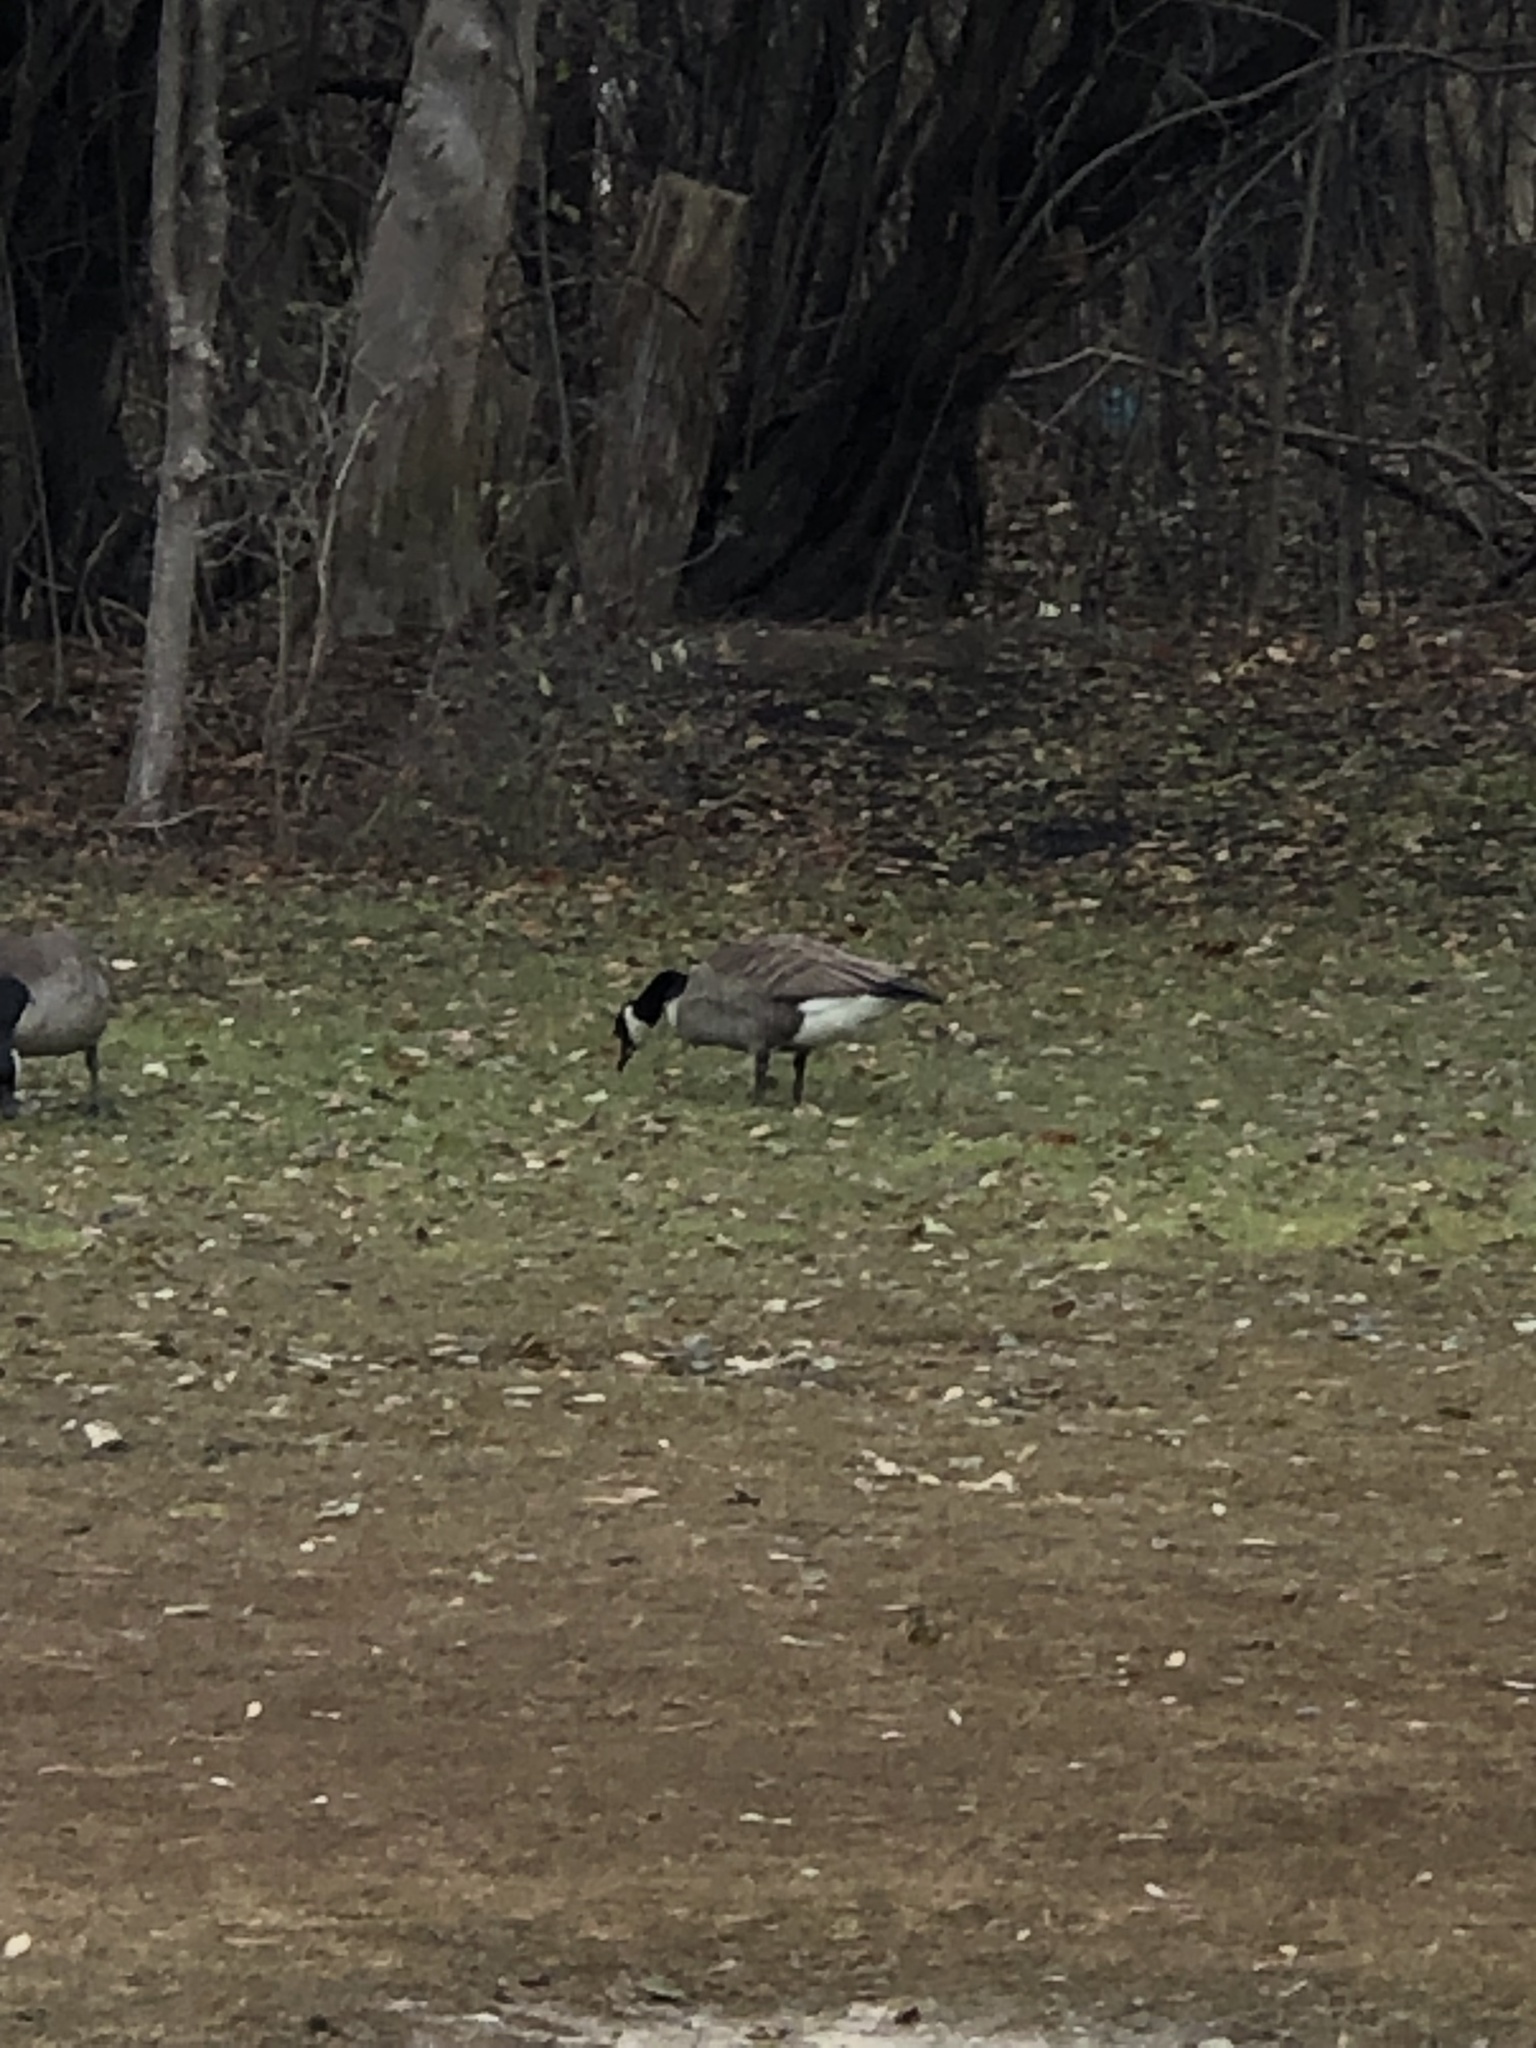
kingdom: Animalia
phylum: Chordata
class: Aves
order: Anseriformes
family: Anatidae
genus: Branta
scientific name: Branta canadensis
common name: Canada goose
